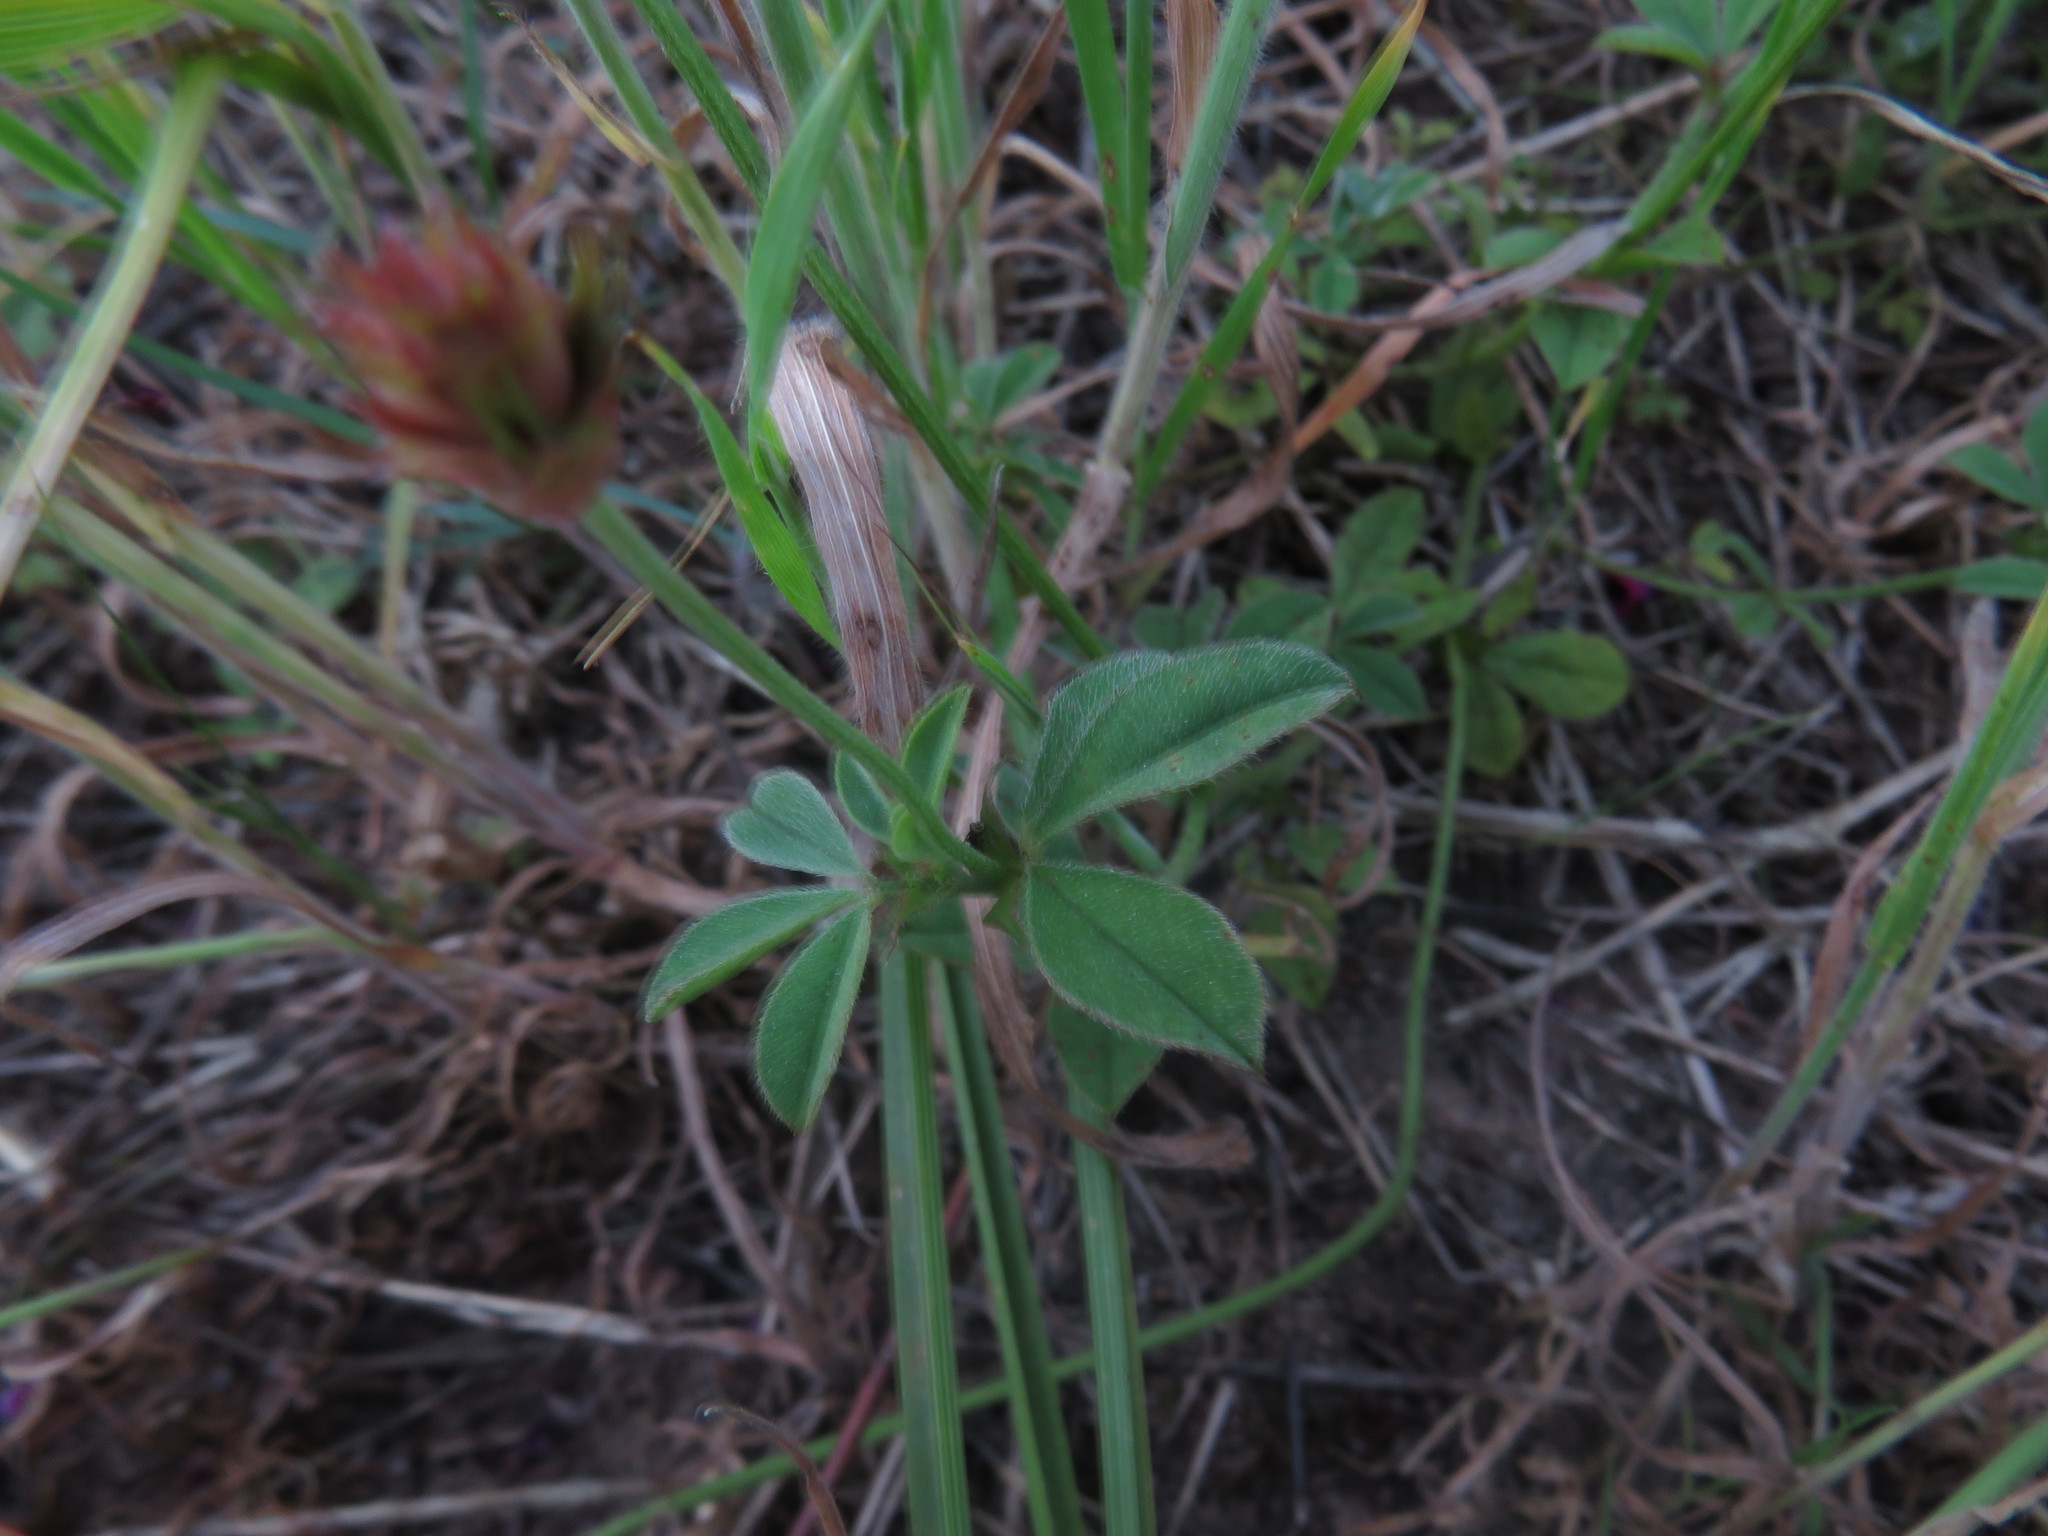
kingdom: Plantae
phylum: Tracheophyta
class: Magnoliopsida
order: Fabales
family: Fabaceae
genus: Indigofera
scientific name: Indigofera incana
